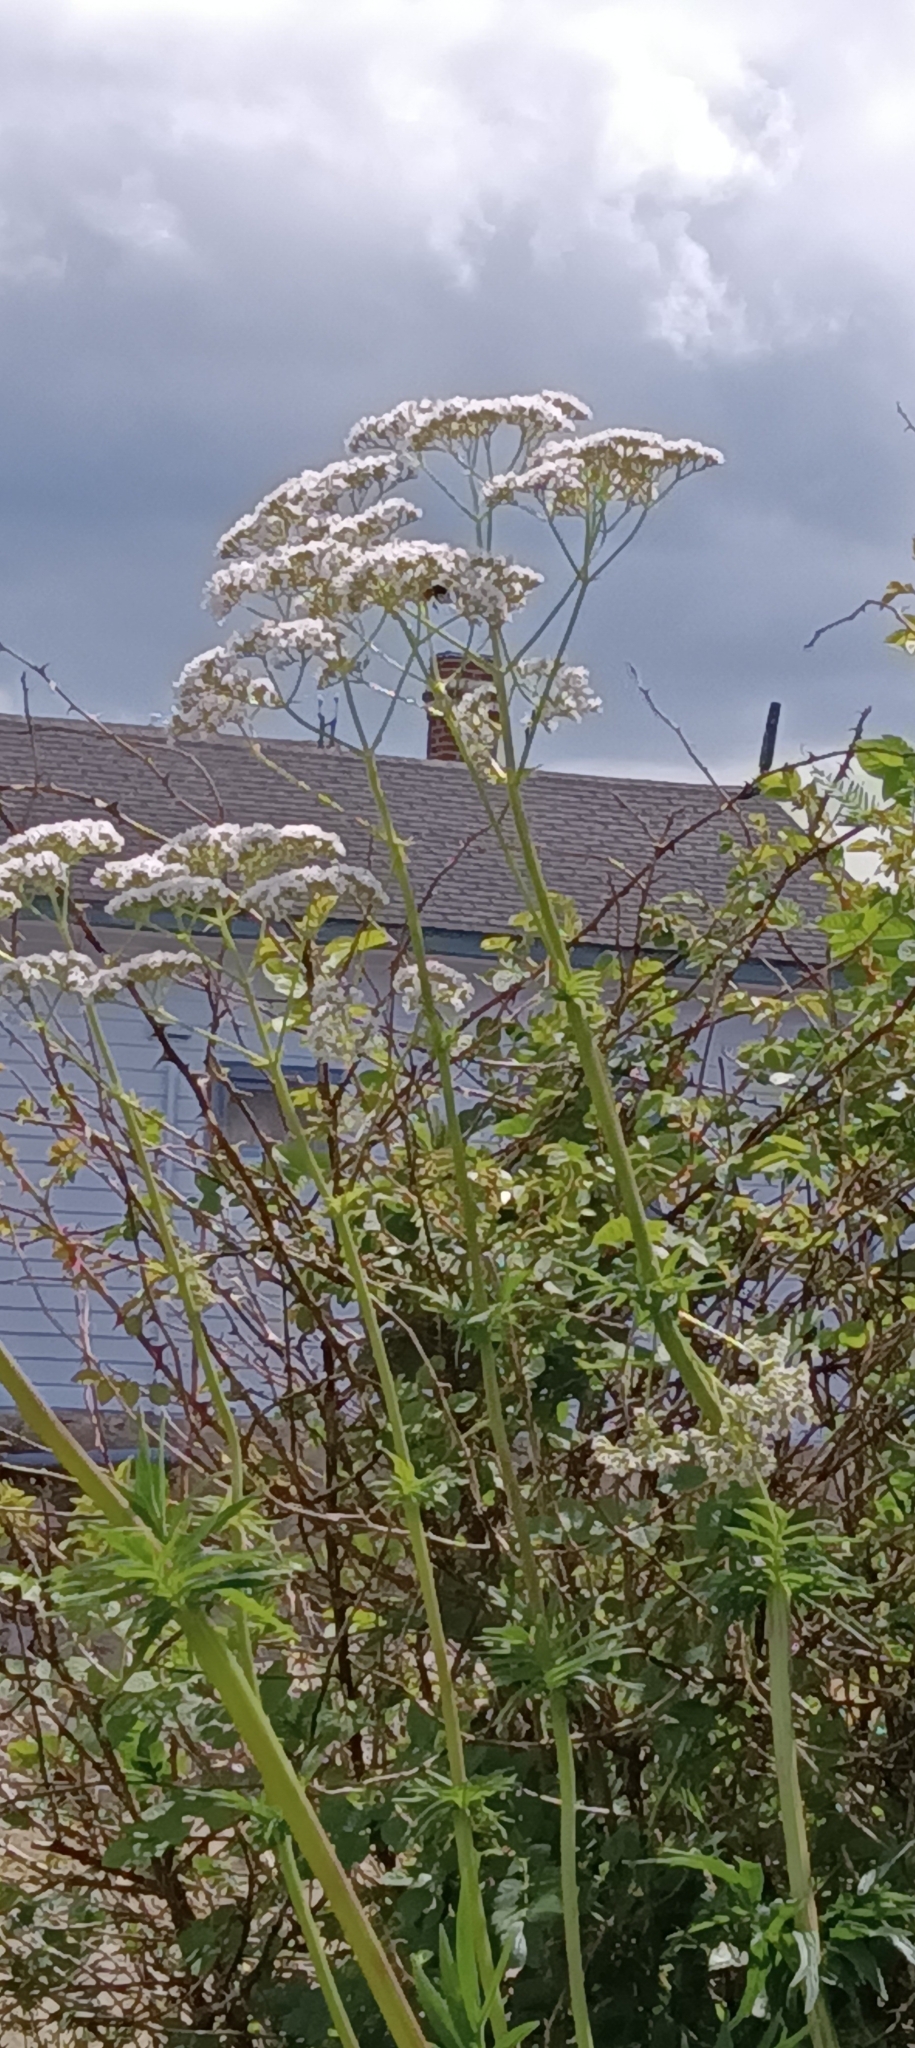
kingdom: Plantae
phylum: Tracheophyta
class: Magnoliopsida
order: Dipsacales
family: Caprifoliaceae
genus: Valeriana
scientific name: Valeriana officinalis
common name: Common valerian
